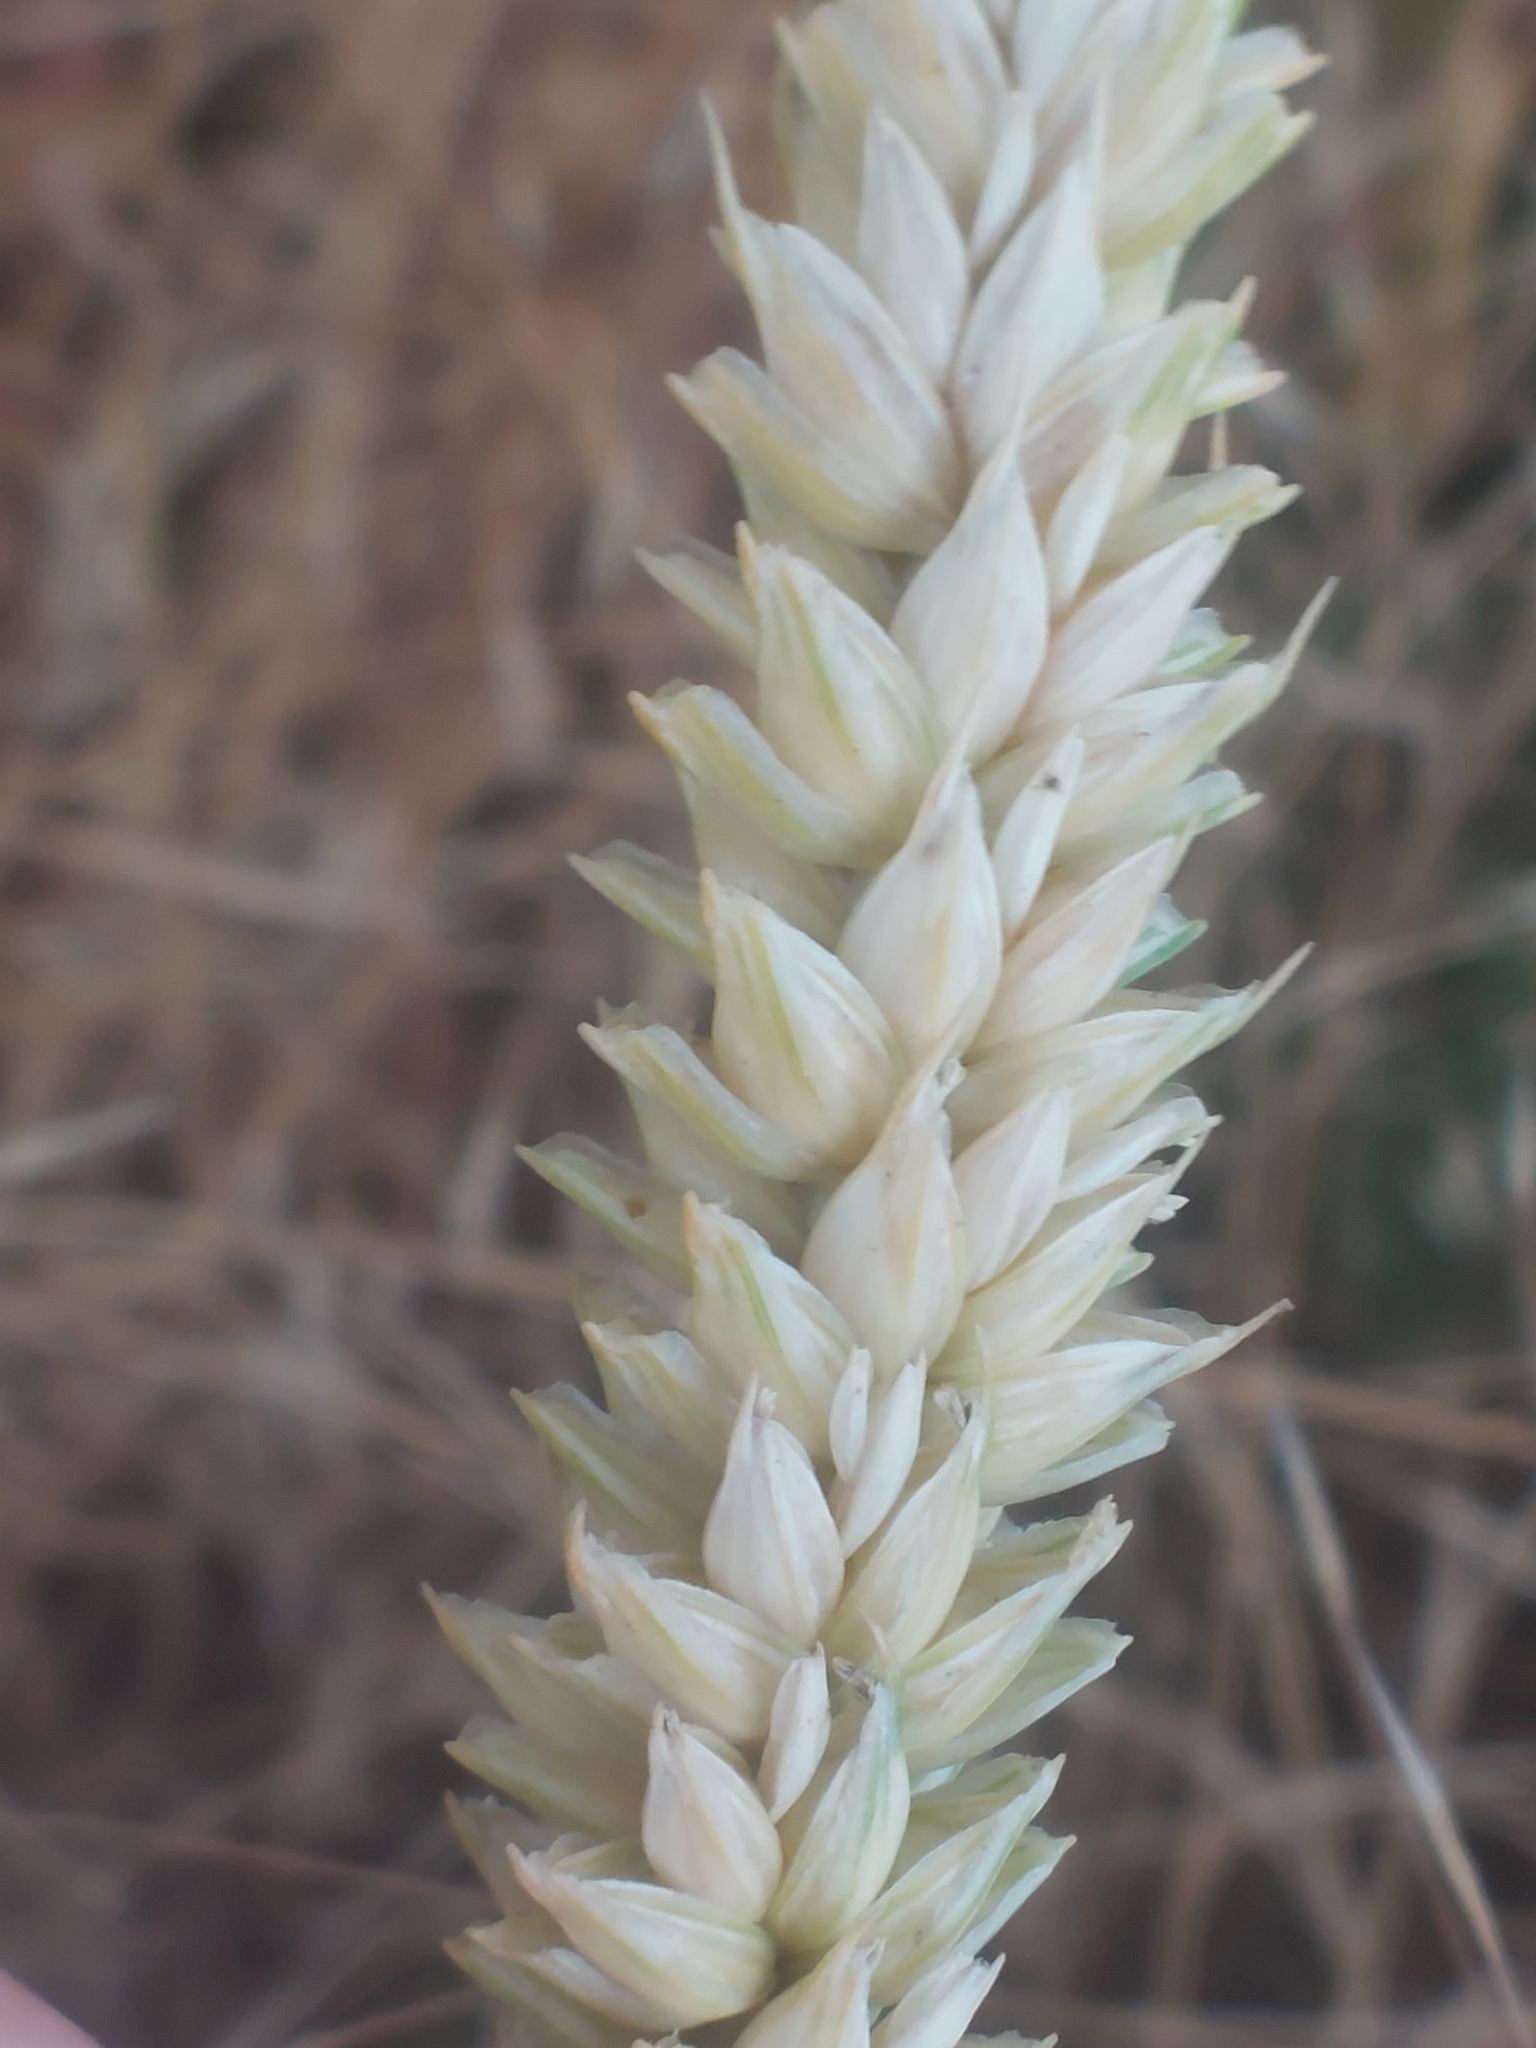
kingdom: Plantae
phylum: Tracheophyta
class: Liliopsida
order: Poales
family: Poaceae
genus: Triticum
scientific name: Triticum aestivum
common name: Common wheat
